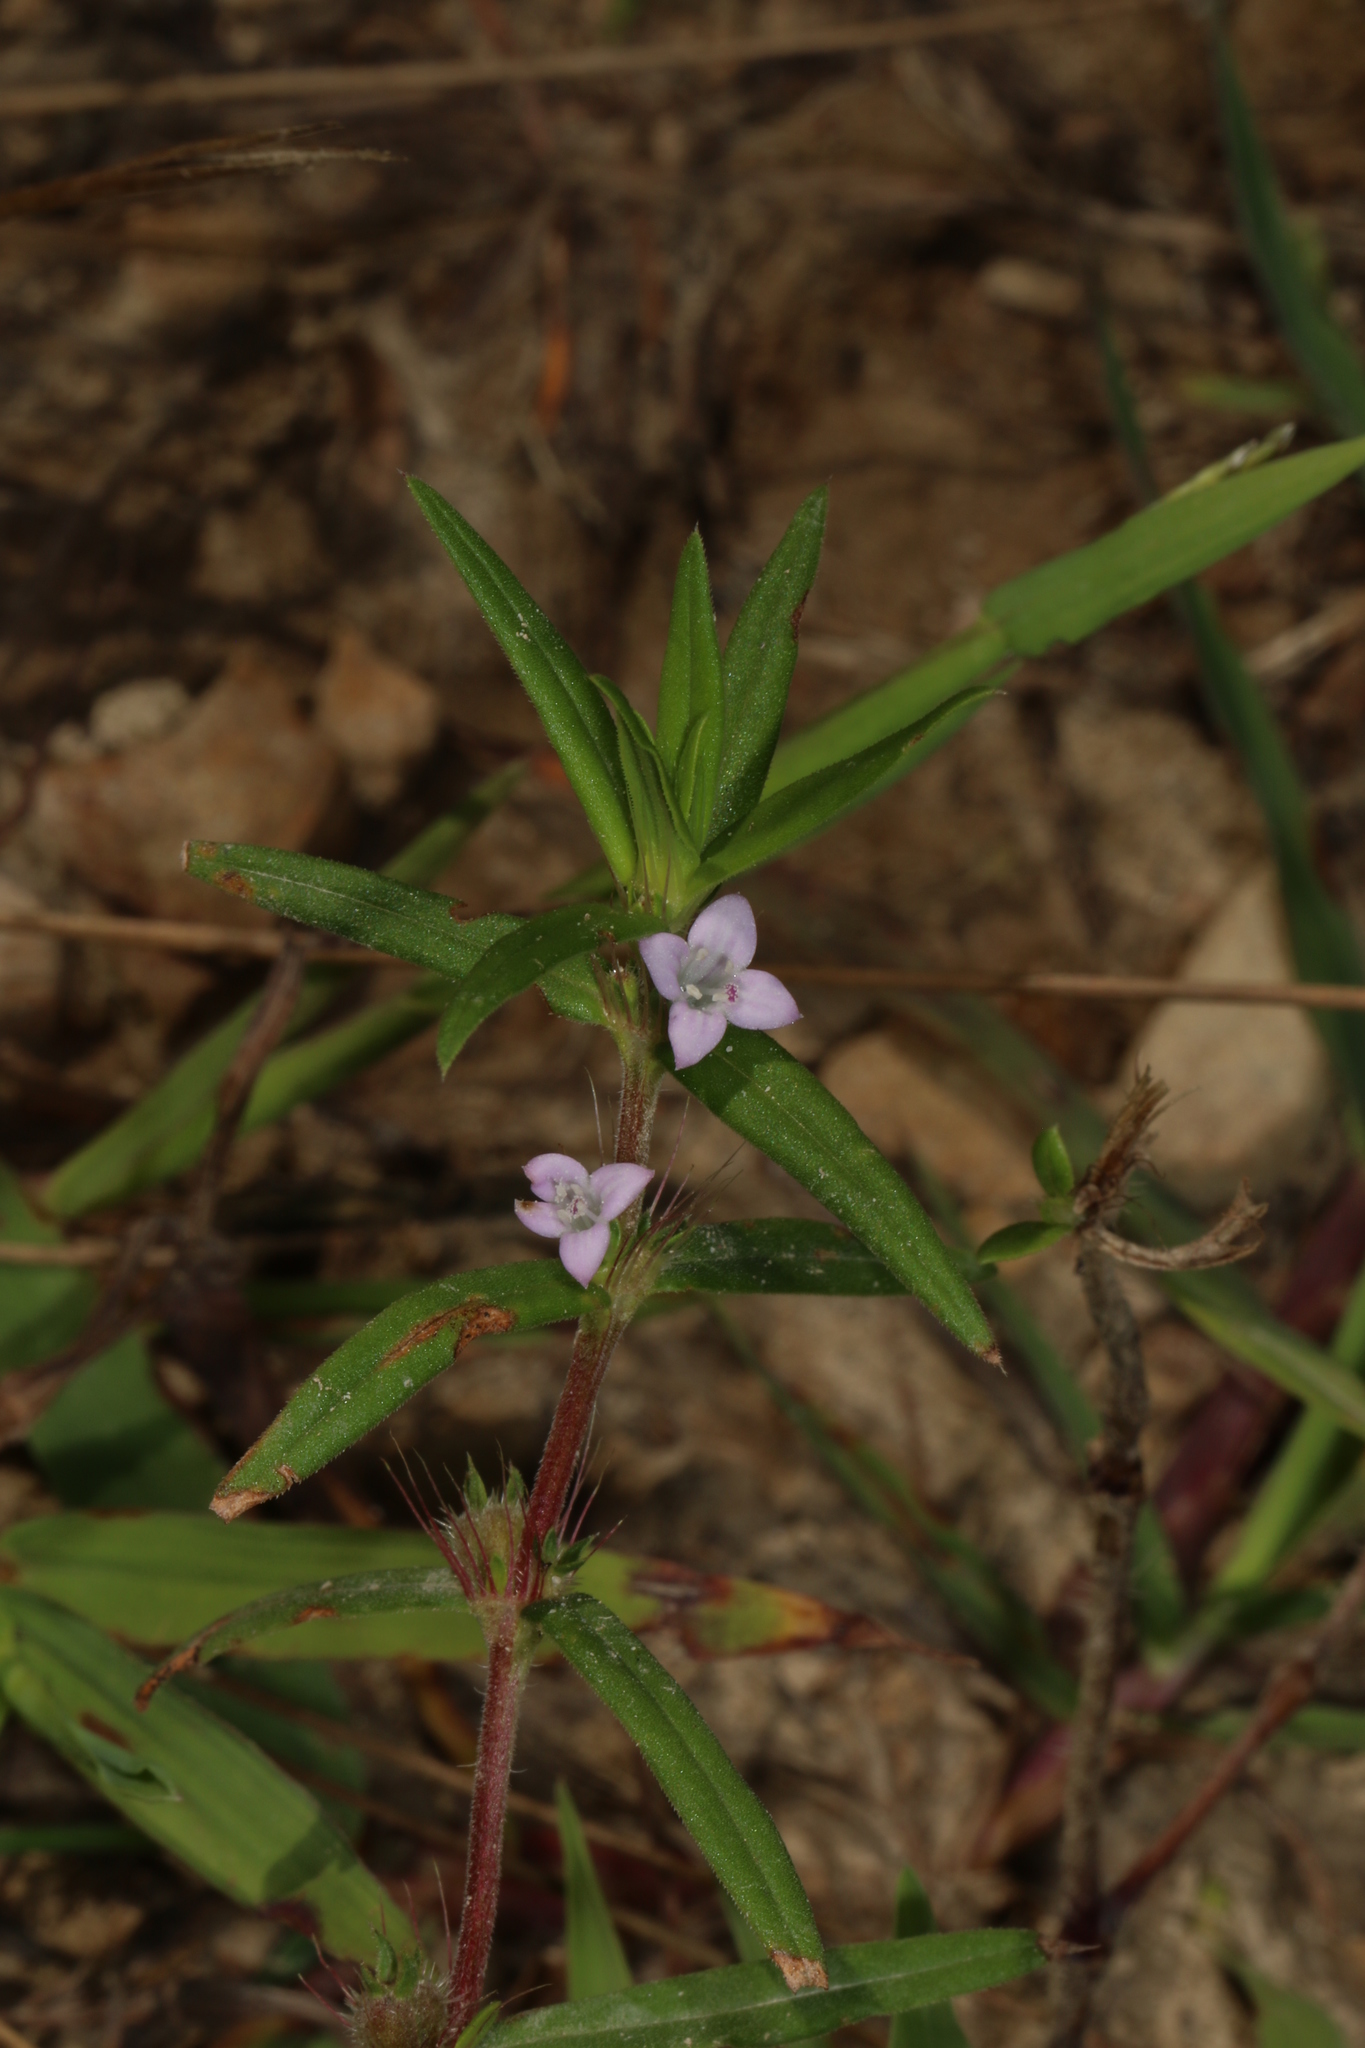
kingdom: Plantae
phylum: Tracheophyta
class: Magnoliopsida
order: Gentianales
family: Rubiaceae
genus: Hexasepalum
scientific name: Hexasepalum teres
